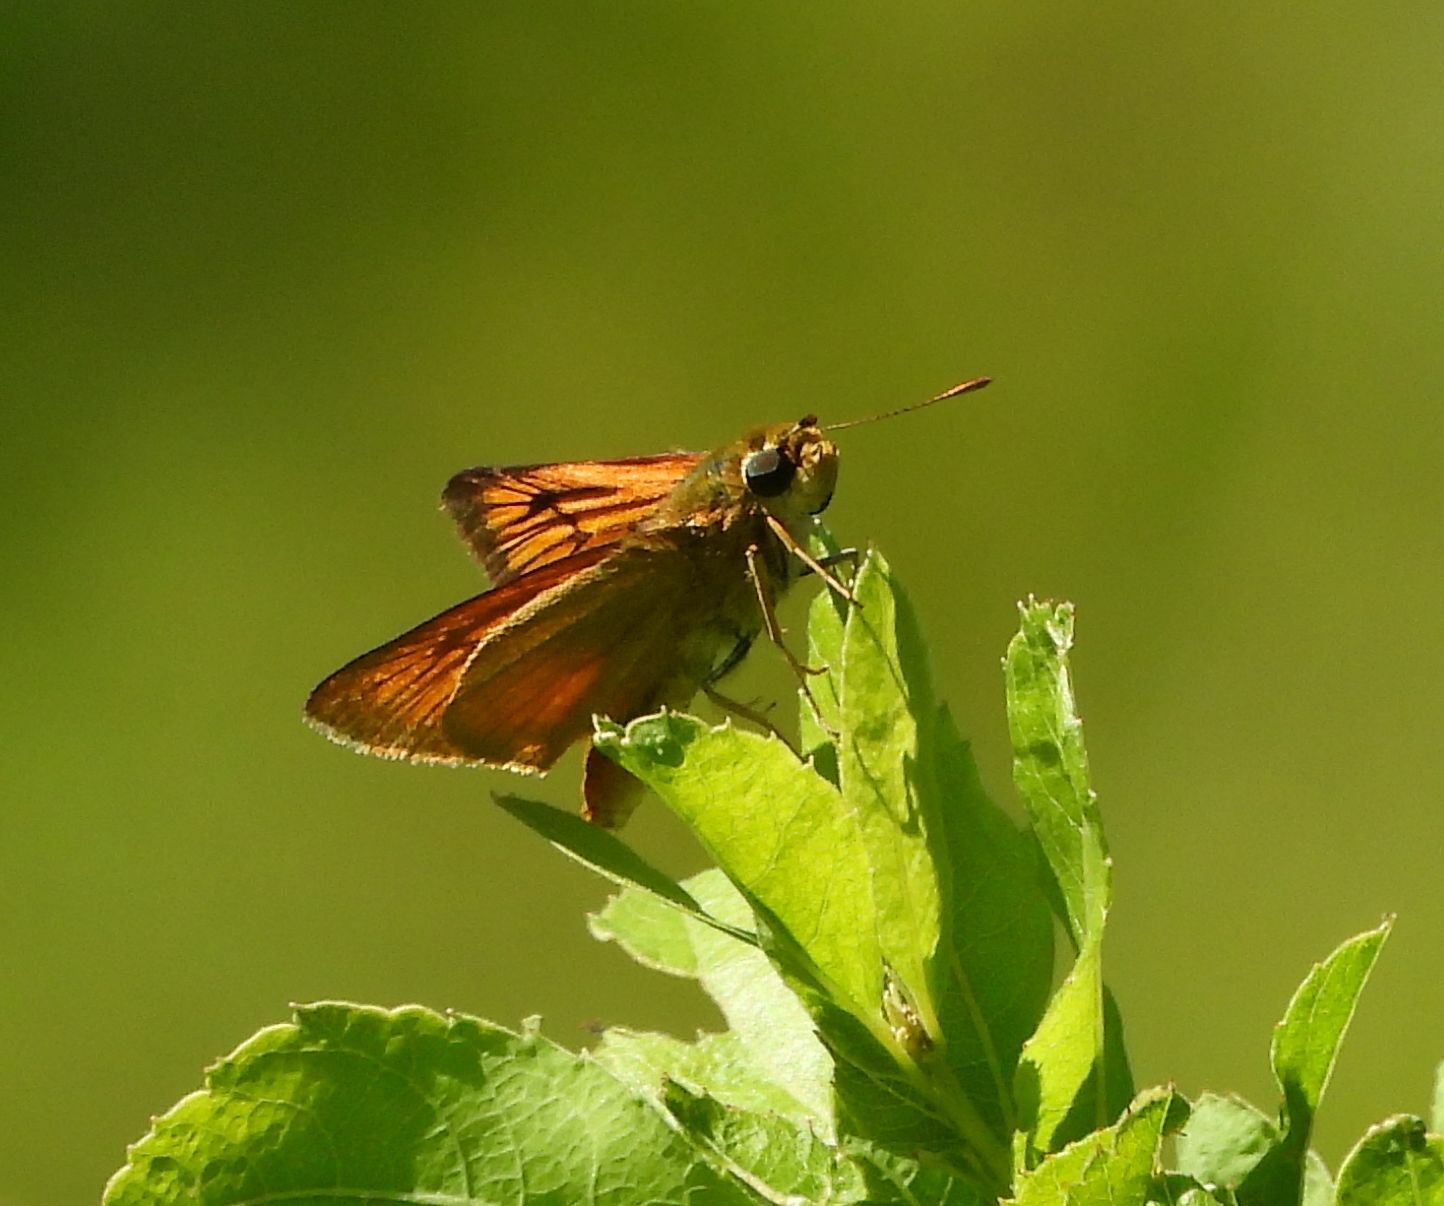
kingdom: Animalia
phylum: Arthropoda
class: Insecta
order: Lepidoptera
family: Hesperiidae
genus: Atrytone
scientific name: Atrytone delaware
